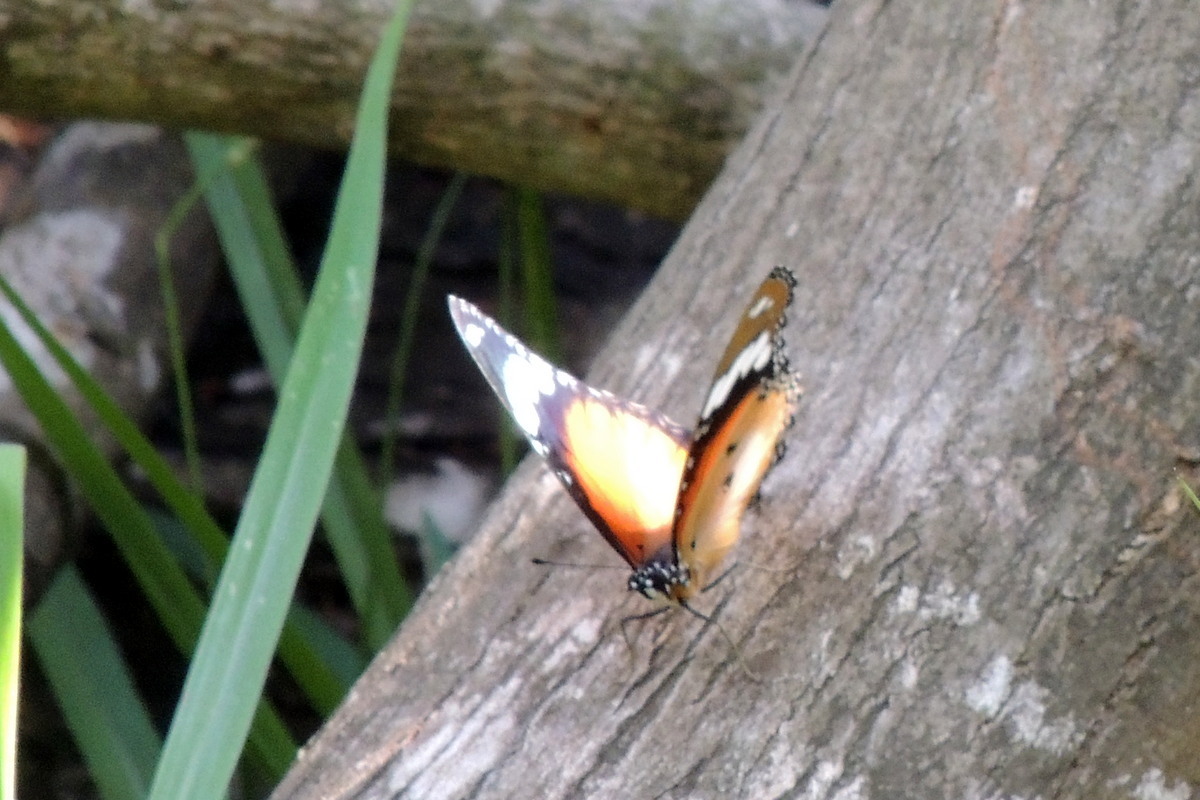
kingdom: Animalia
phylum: Arthropoda
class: Insecta
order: Lepidoptera
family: Nymphalidae
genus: Hypolimnas
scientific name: Hypolimnas misippus
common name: False plain tiger
